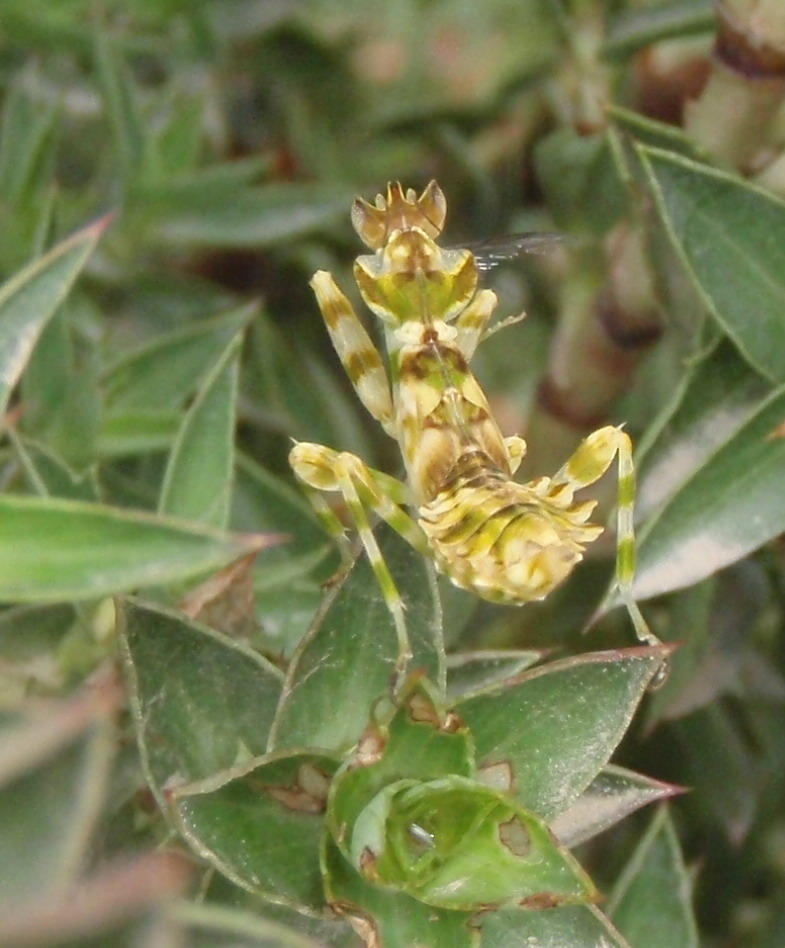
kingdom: Animalia
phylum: Arthropoda
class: Insecta
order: Mantodea
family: Galinthiadidae
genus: Harpagomantis
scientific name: Harpagomantis tricolor
